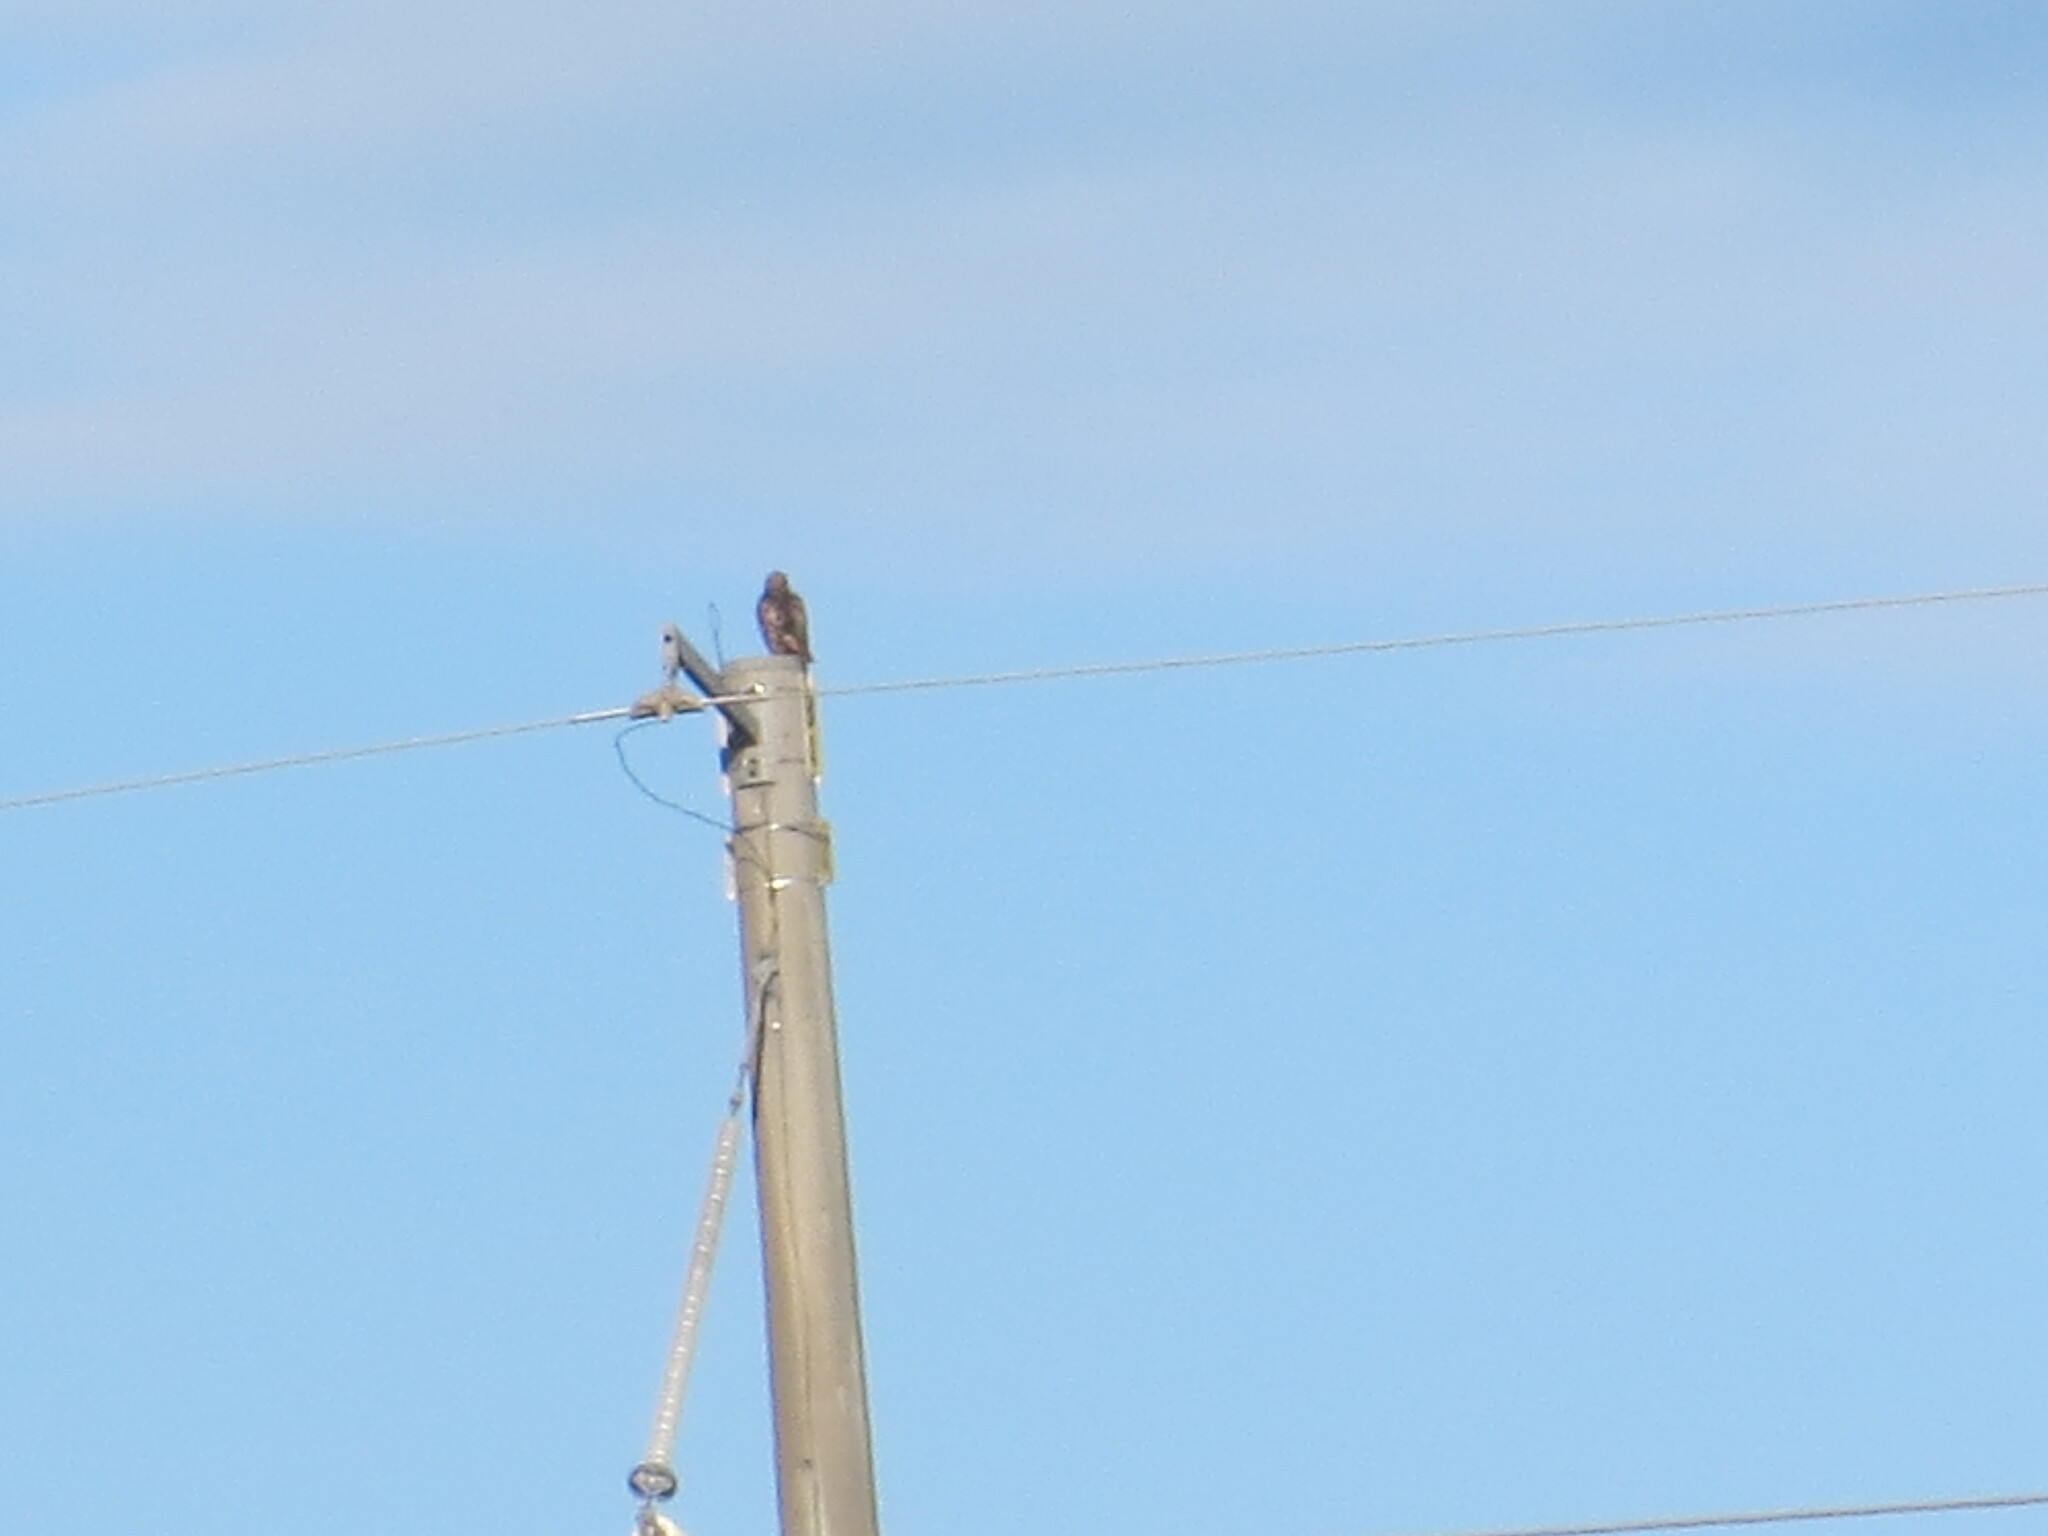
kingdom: Animalia
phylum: Chordata
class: Aves
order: Accipitriformes
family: Accipitridae
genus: Buteo
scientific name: Buteo jamaicensis
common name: Red-tailed hawk
